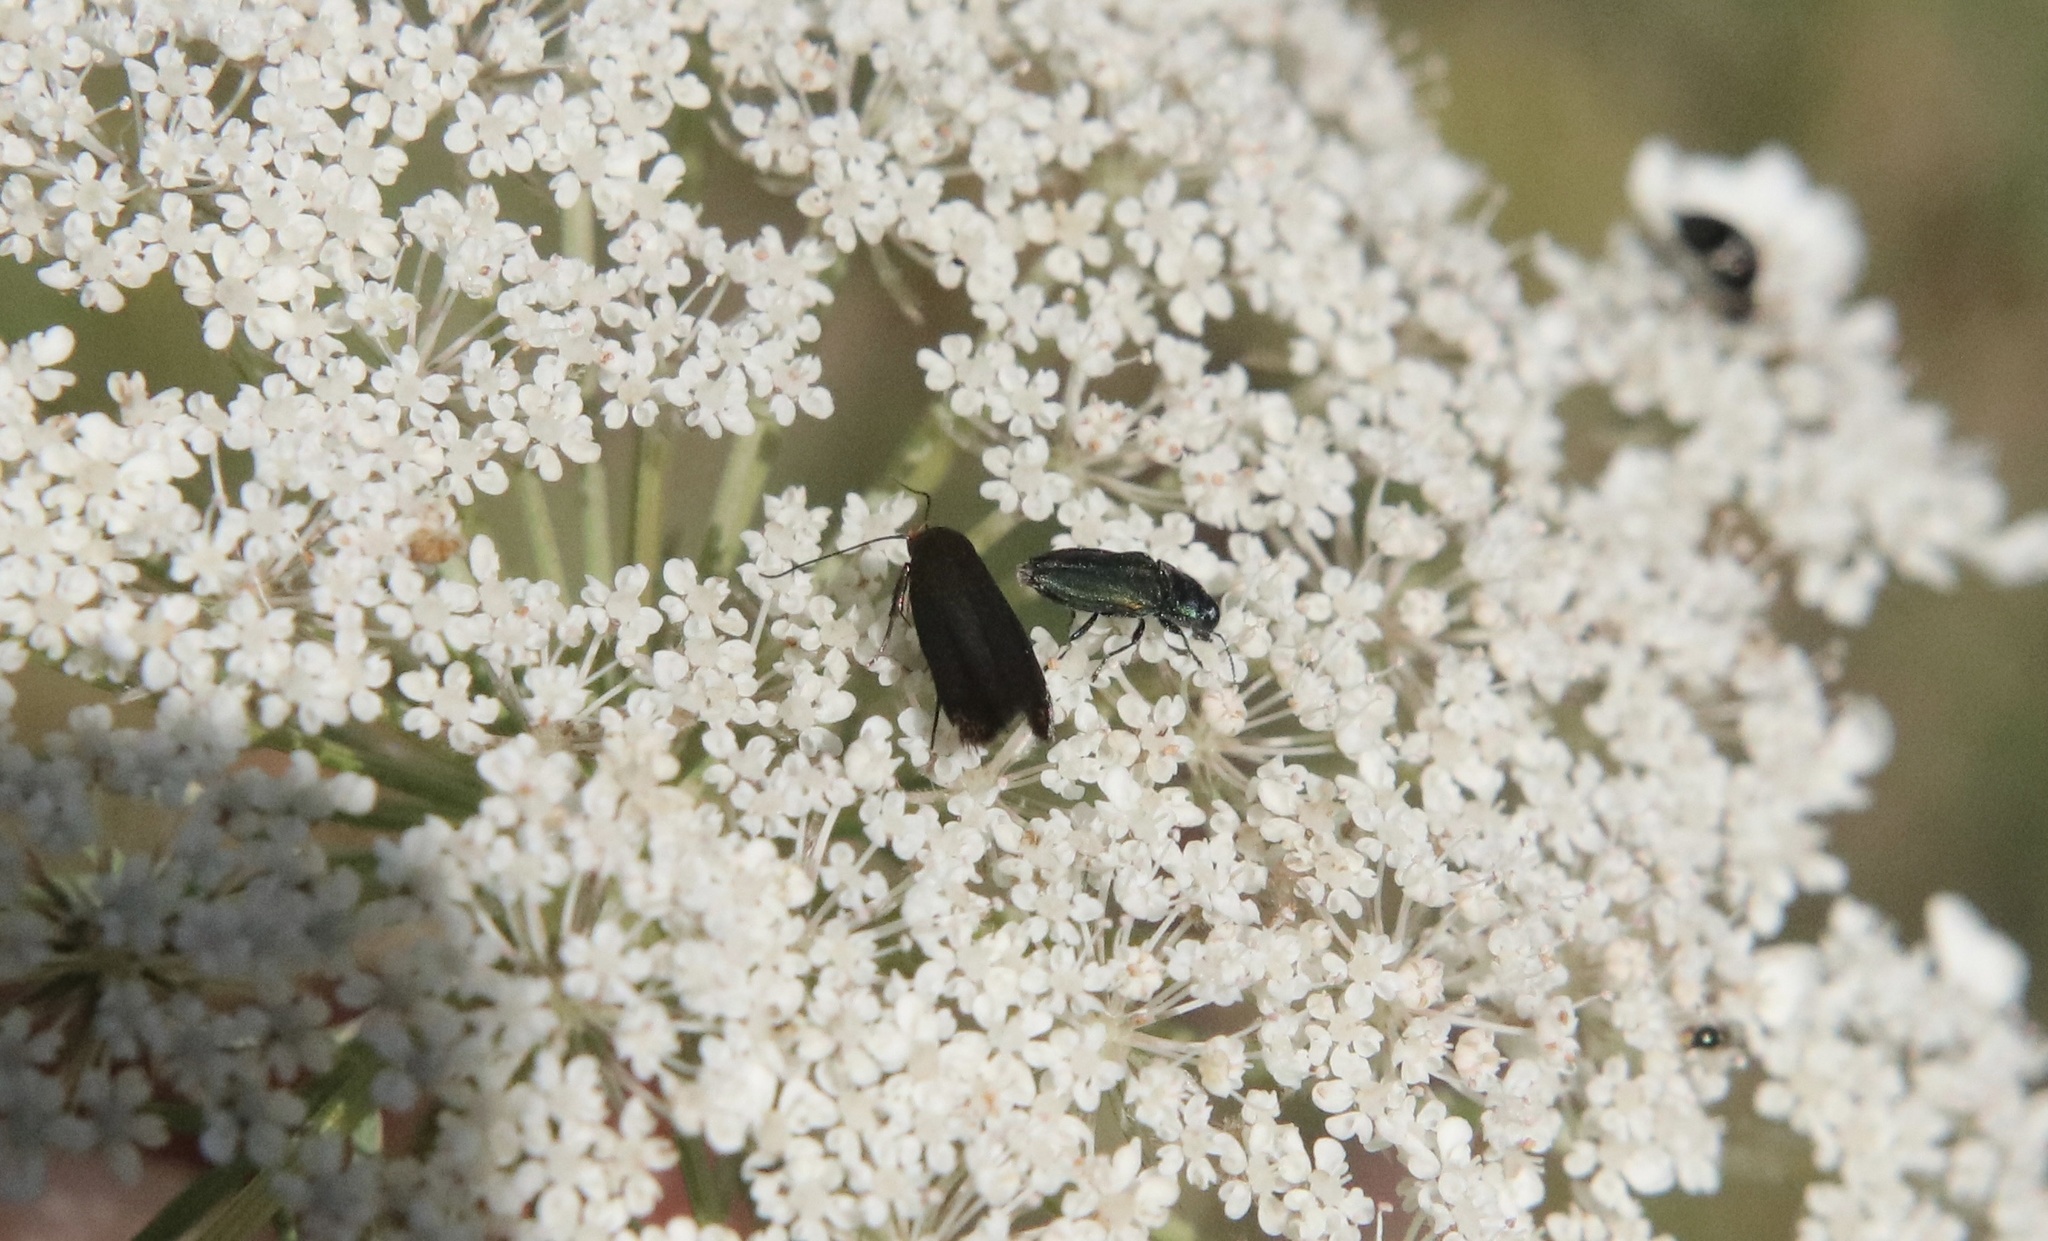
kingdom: Animalia
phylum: Arthropoda
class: Insecta
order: Lepidoptera
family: Depressariidae
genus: Afdera
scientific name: Afdera
